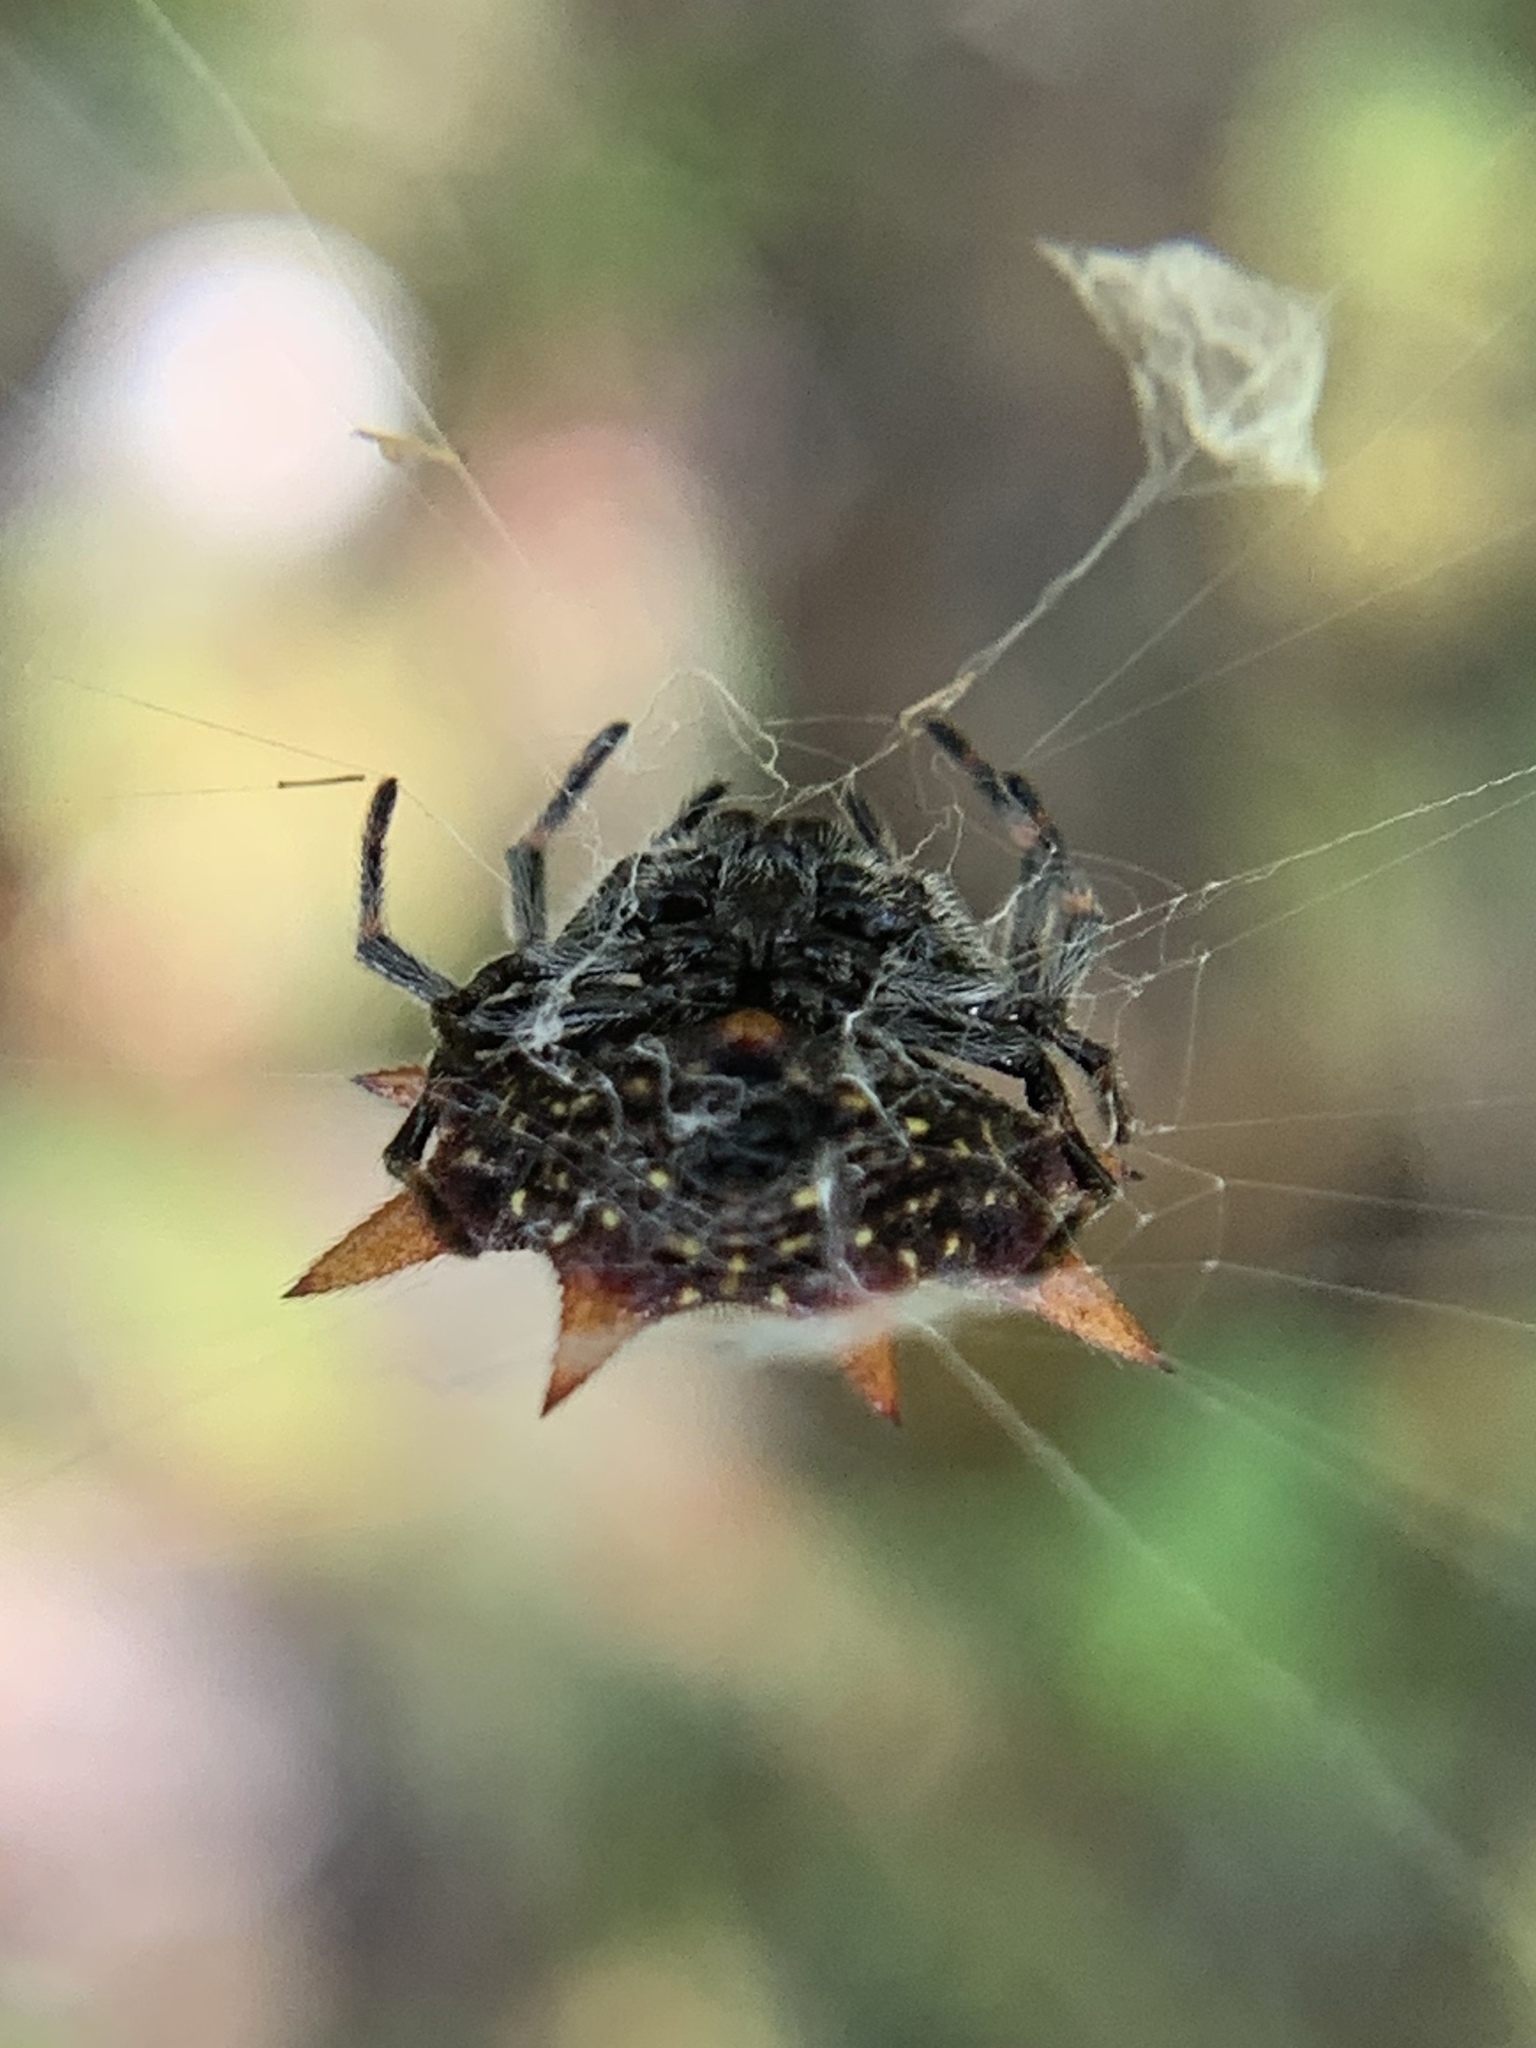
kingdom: Animalia
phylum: Arthropoda
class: Arachnida
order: Araneae
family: Araneidae
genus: Gasteracantha
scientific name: Gasteracantha cancriformis
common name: Orb weavers
